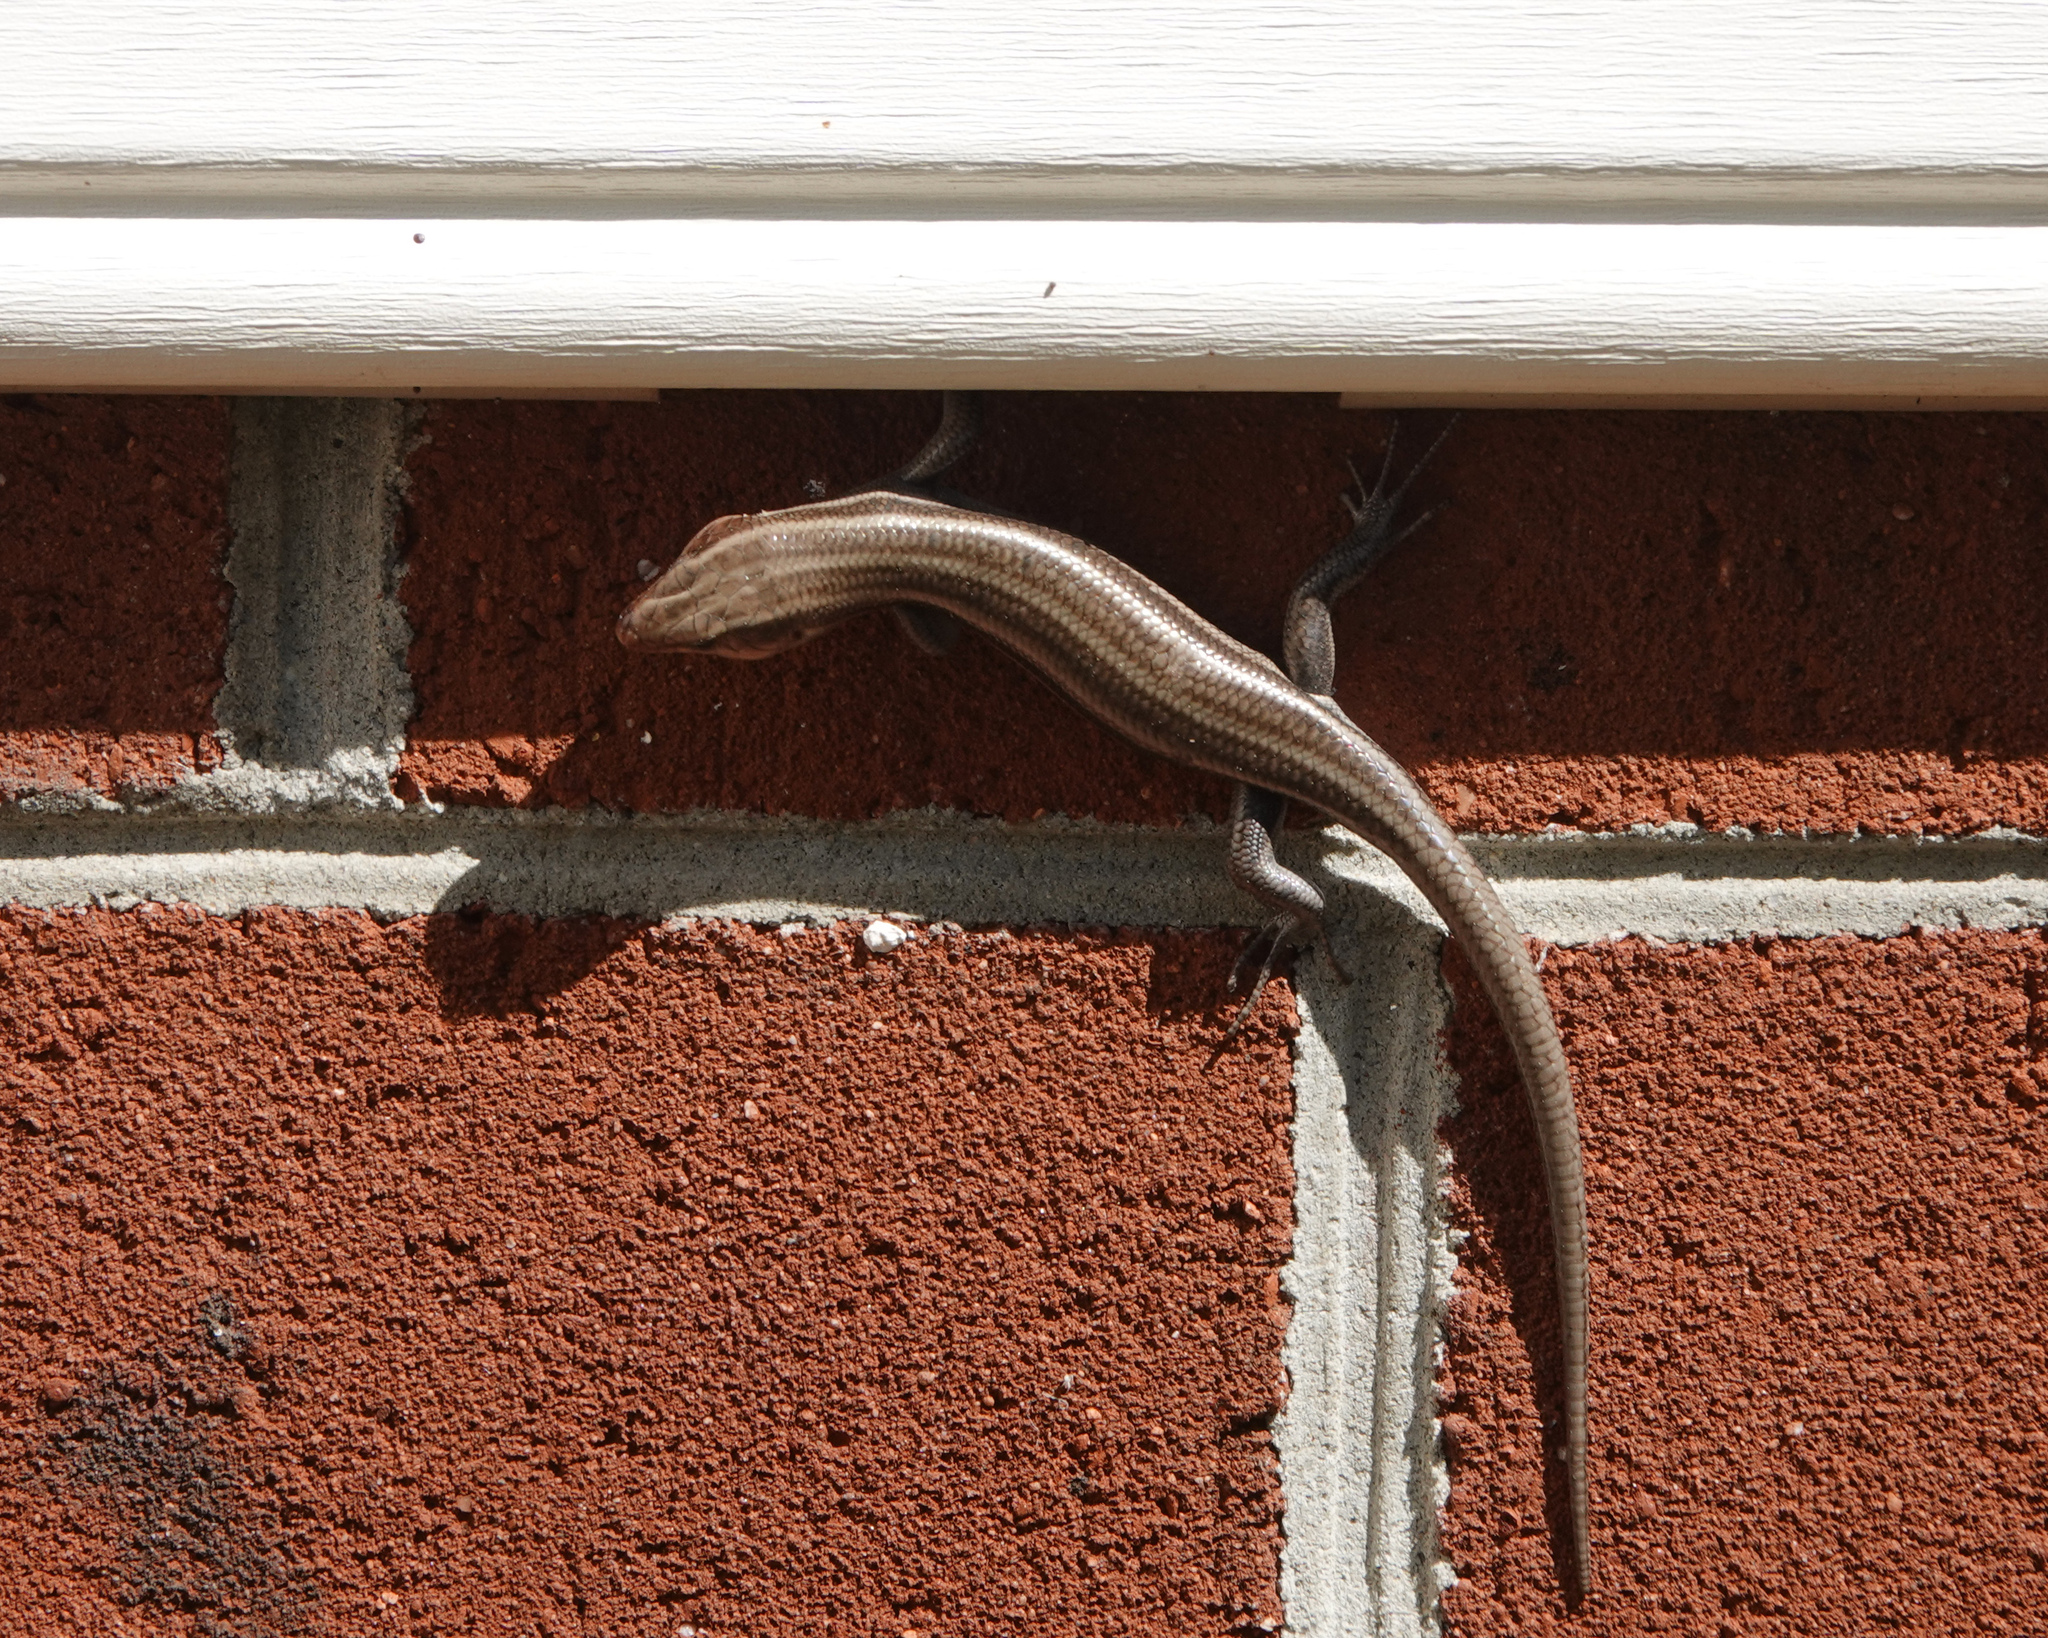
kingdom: Animalia
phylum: Chordata
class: Squamata
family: Scincidae
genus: Plestiodon
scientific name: Plestiodon fasciatus
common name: Five-lined skink
